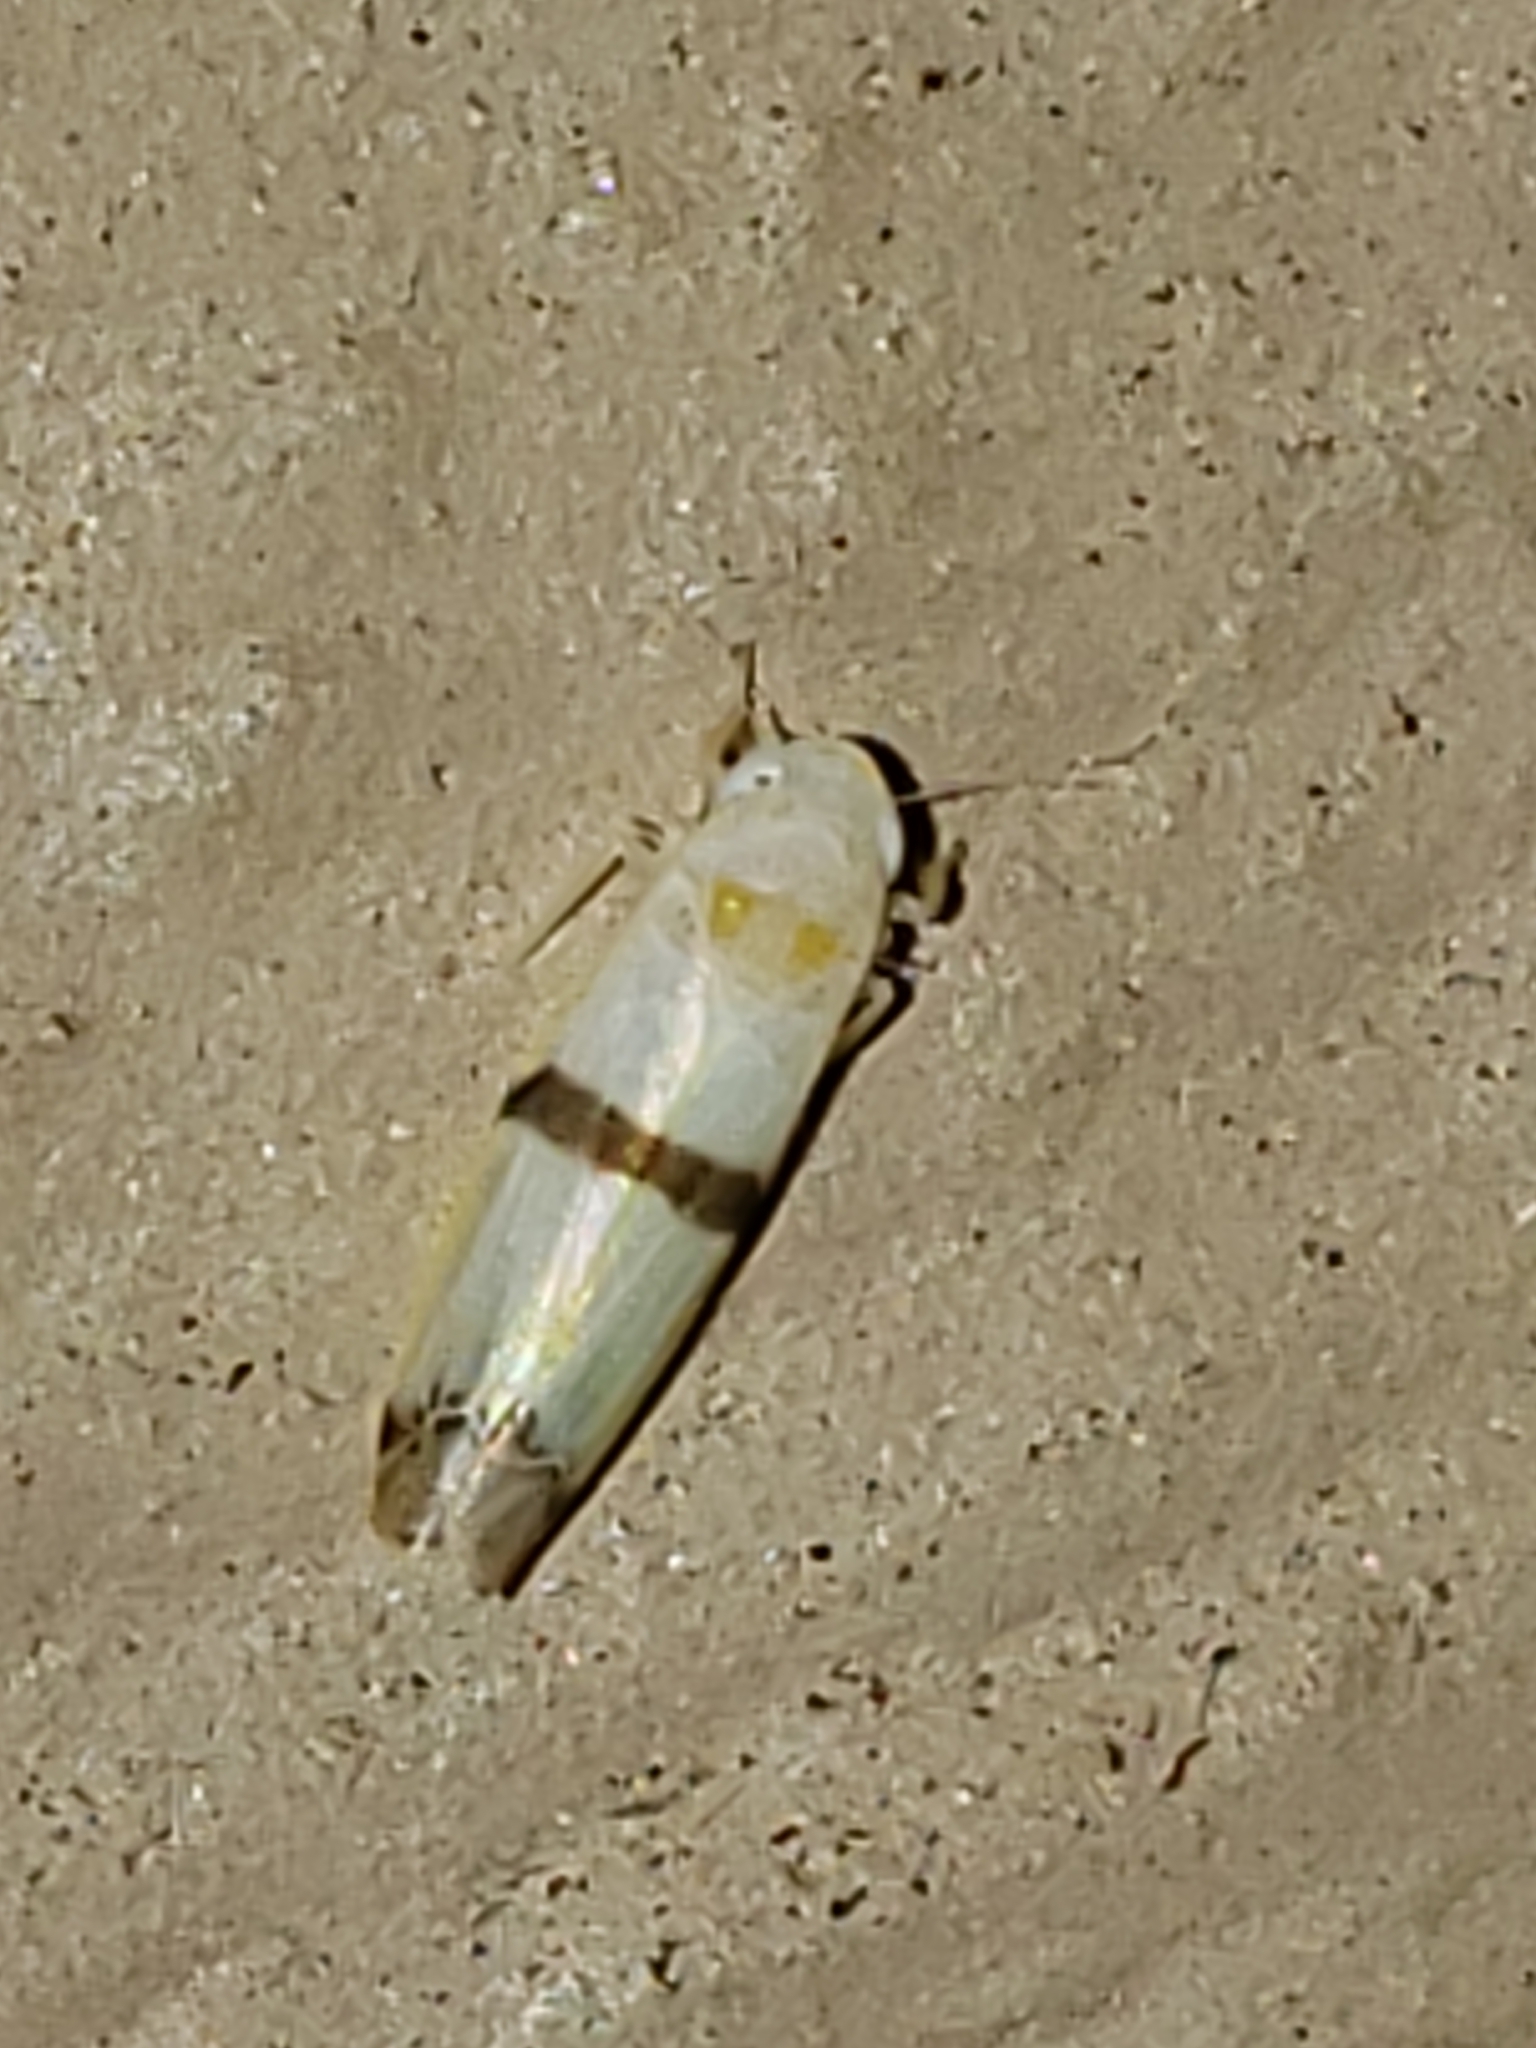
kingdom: Animalia
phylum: Arthropoda
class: Insecta
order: Hemiptera
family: Cicadellidae
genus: Empoa
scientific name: Empoa gillettei
